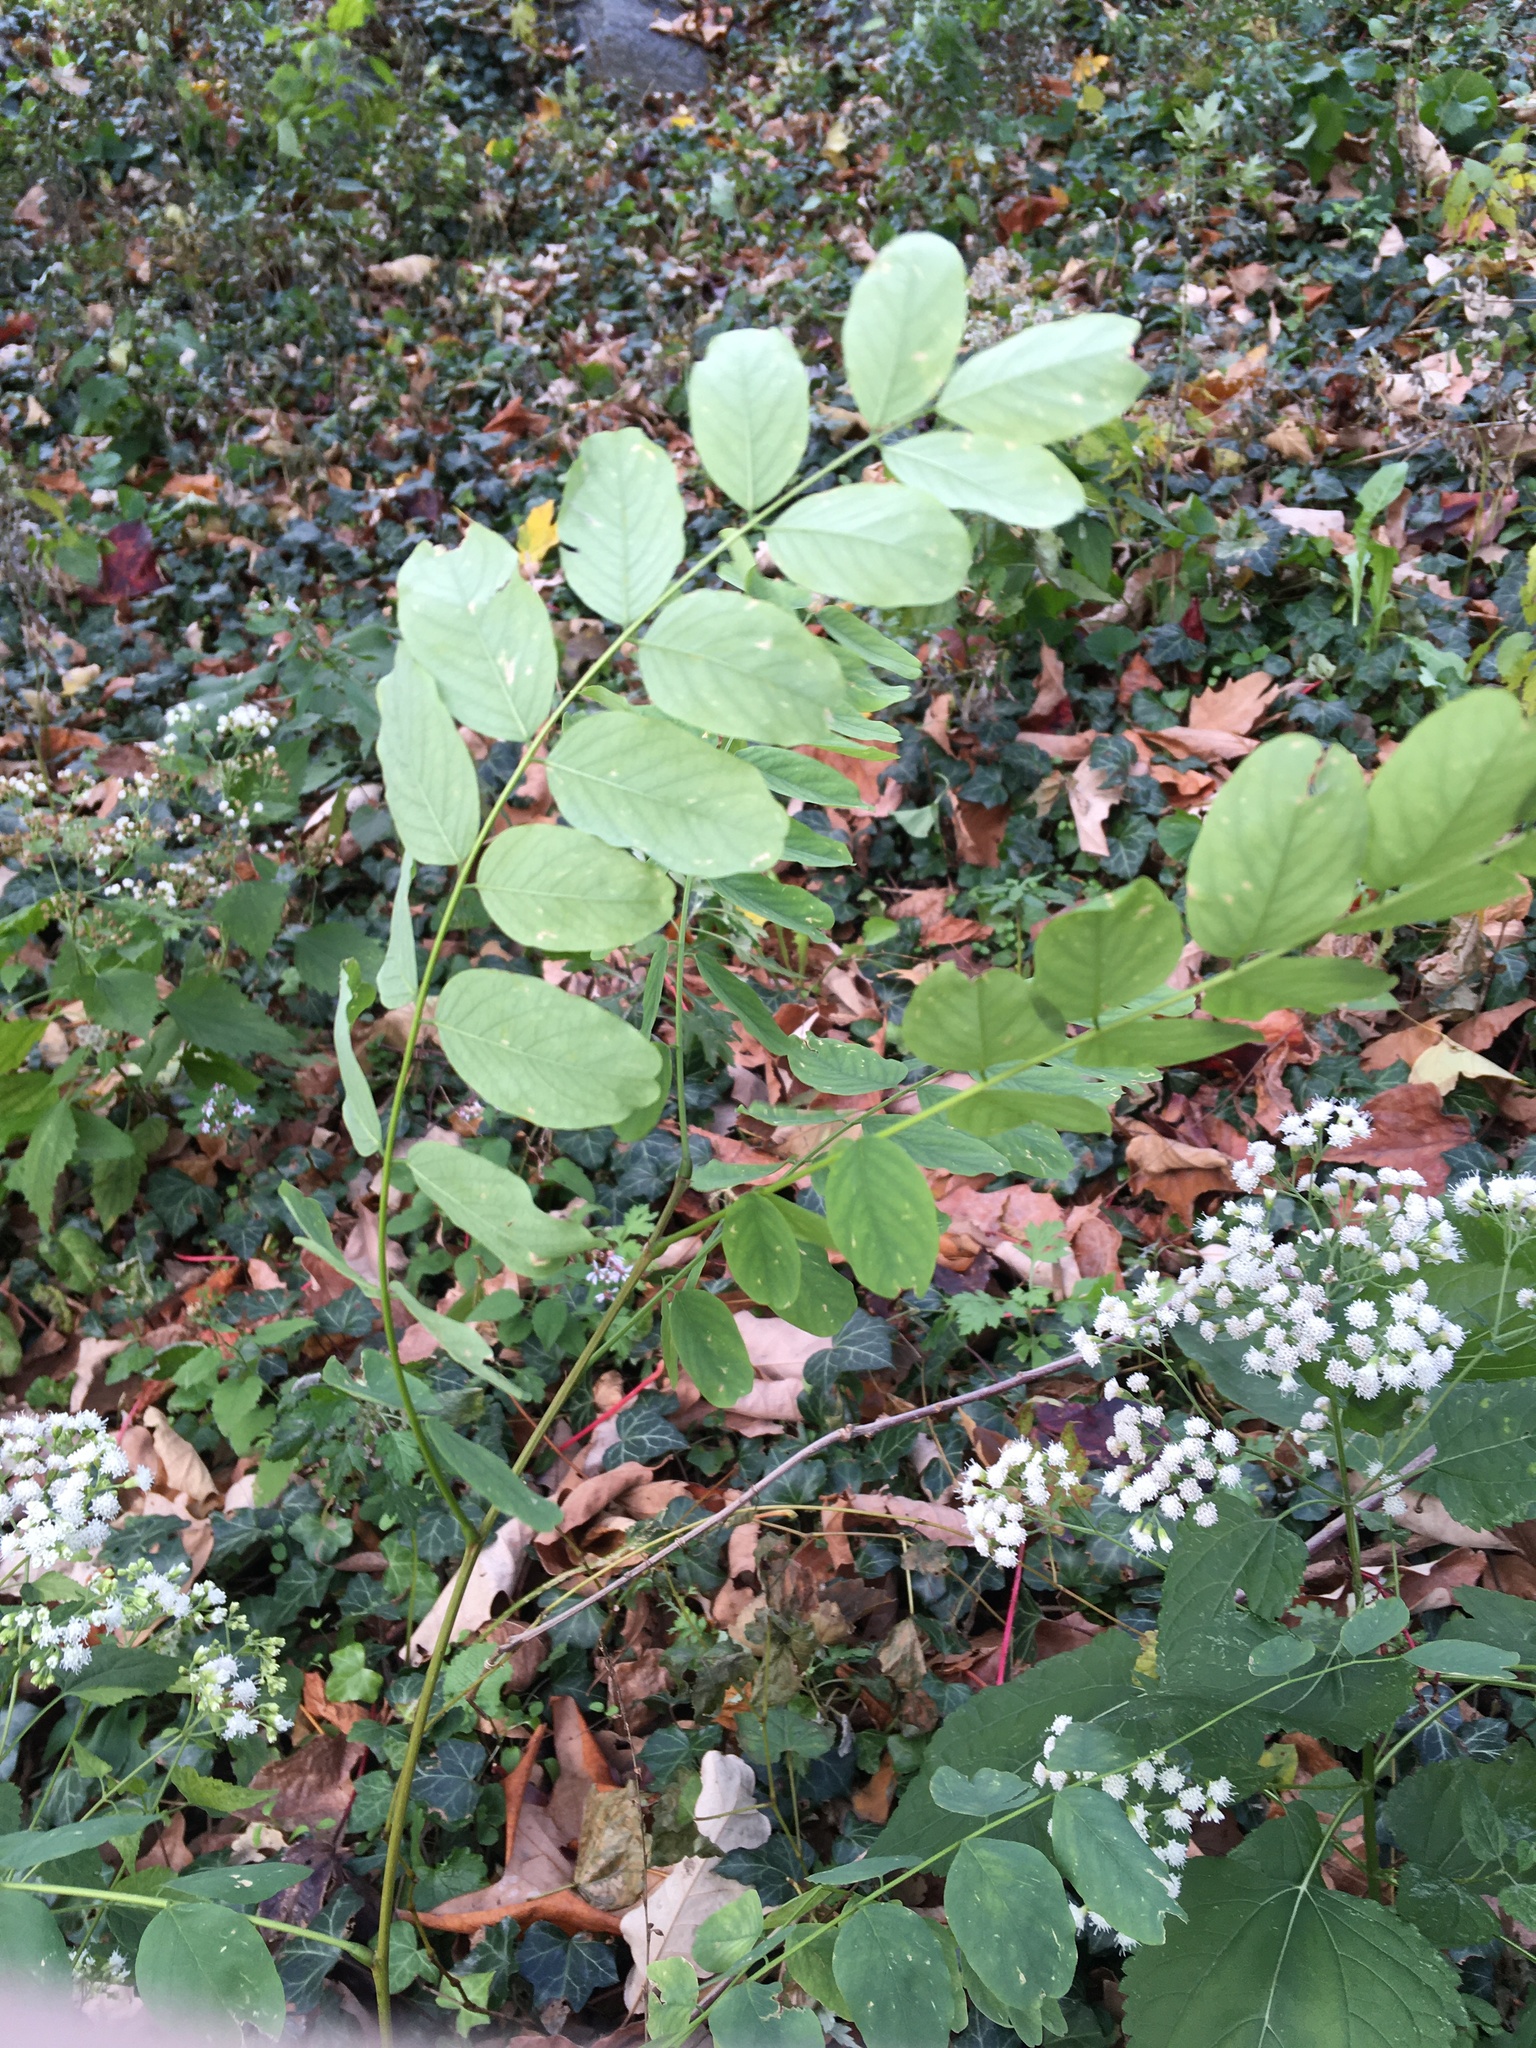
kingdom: Plantae
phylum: Tracheophyta
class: Magnoliopsida
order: Fabales
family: Fabaceae
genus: Robinia
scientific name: Robinia pseudoacacia
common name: Black locust
